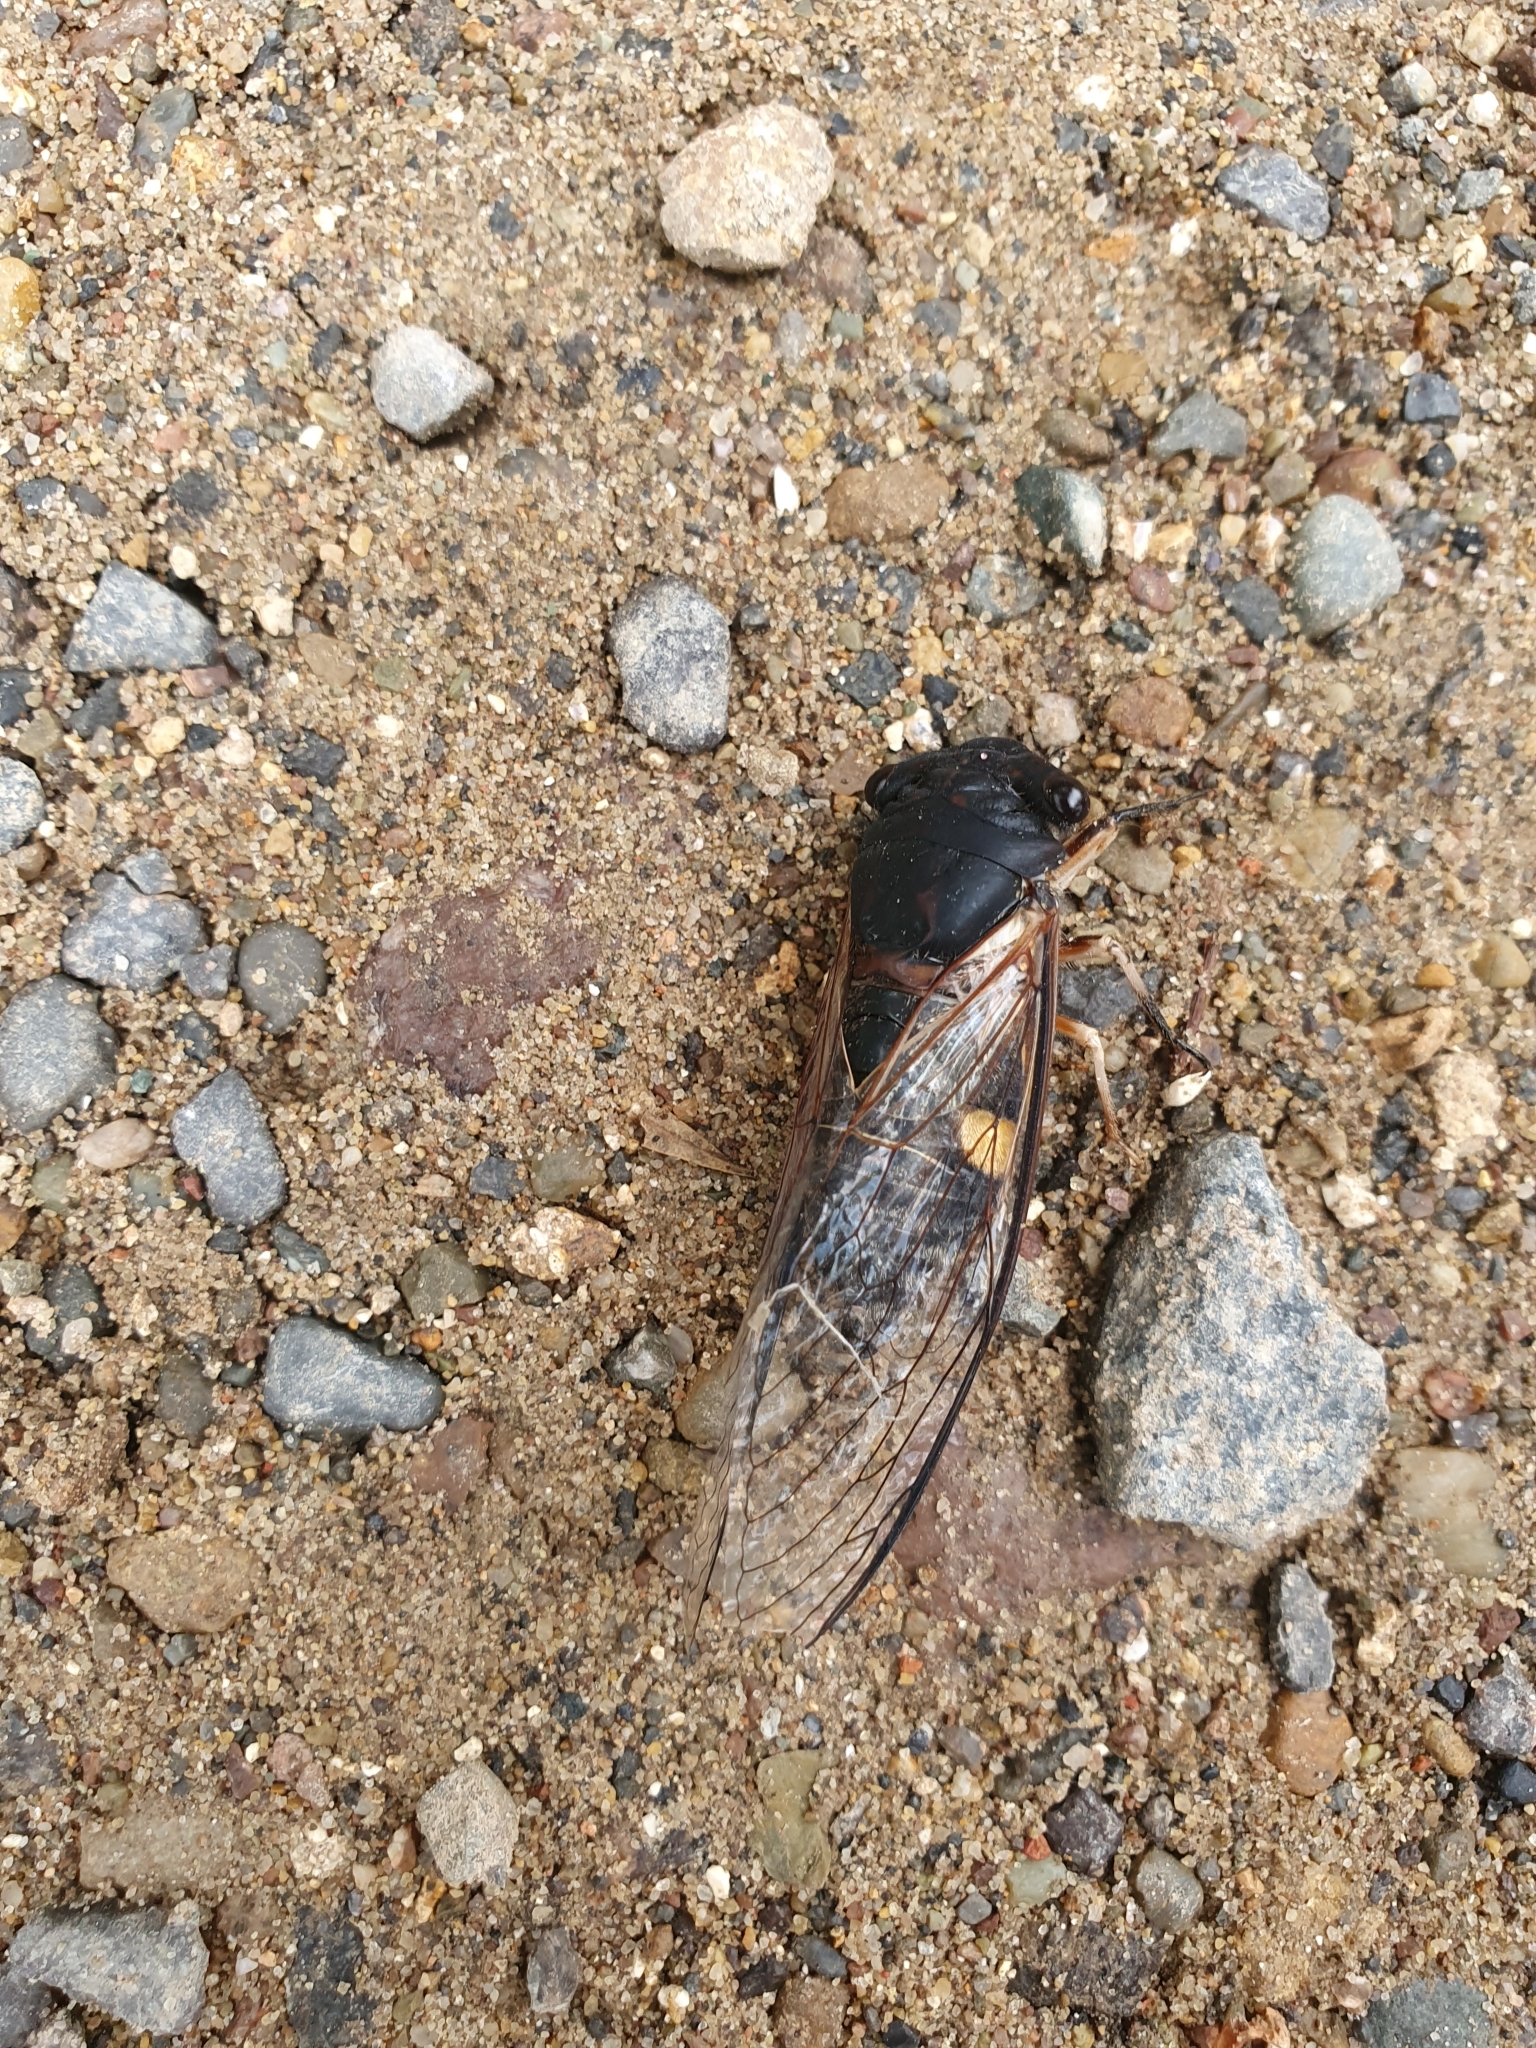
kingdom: Animalia
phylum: Arthropoda
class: Insecta
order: Hemiptera
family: Cicadidae
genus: Psaltoda
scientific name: Psaltoda harrisii
